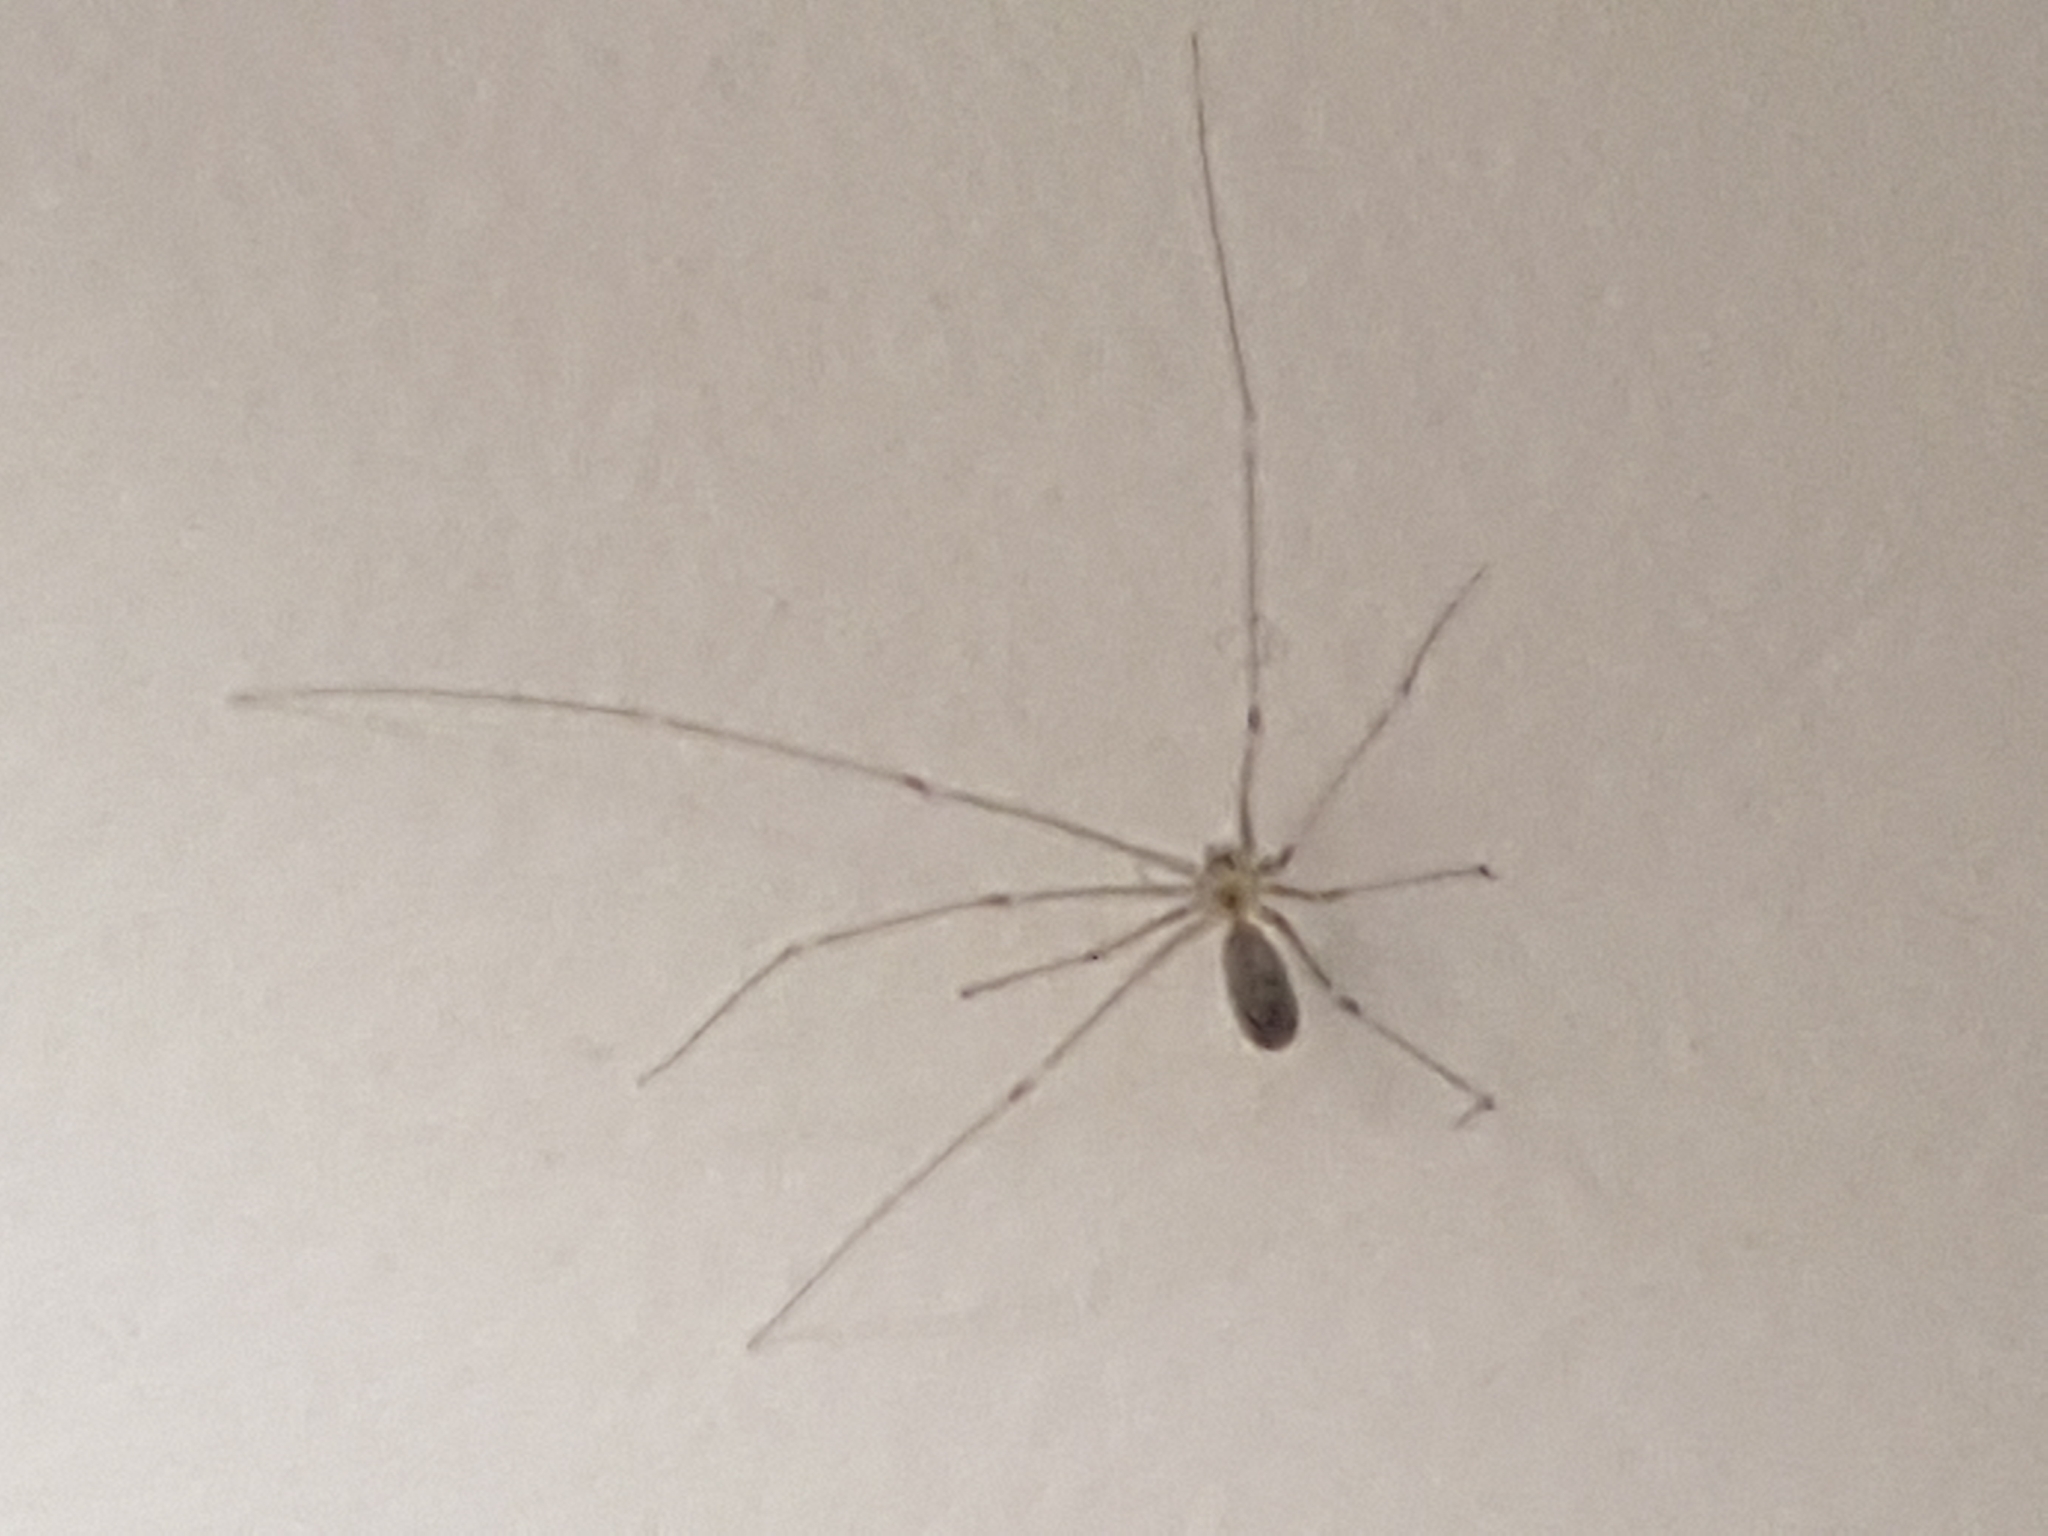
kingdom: Animalia
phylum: Arthropoda
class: Arachnida
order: Araneae
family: Pholcidae
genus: Pholcus
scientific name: Pholcus phalangioides
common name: Longbodied cellar spider
